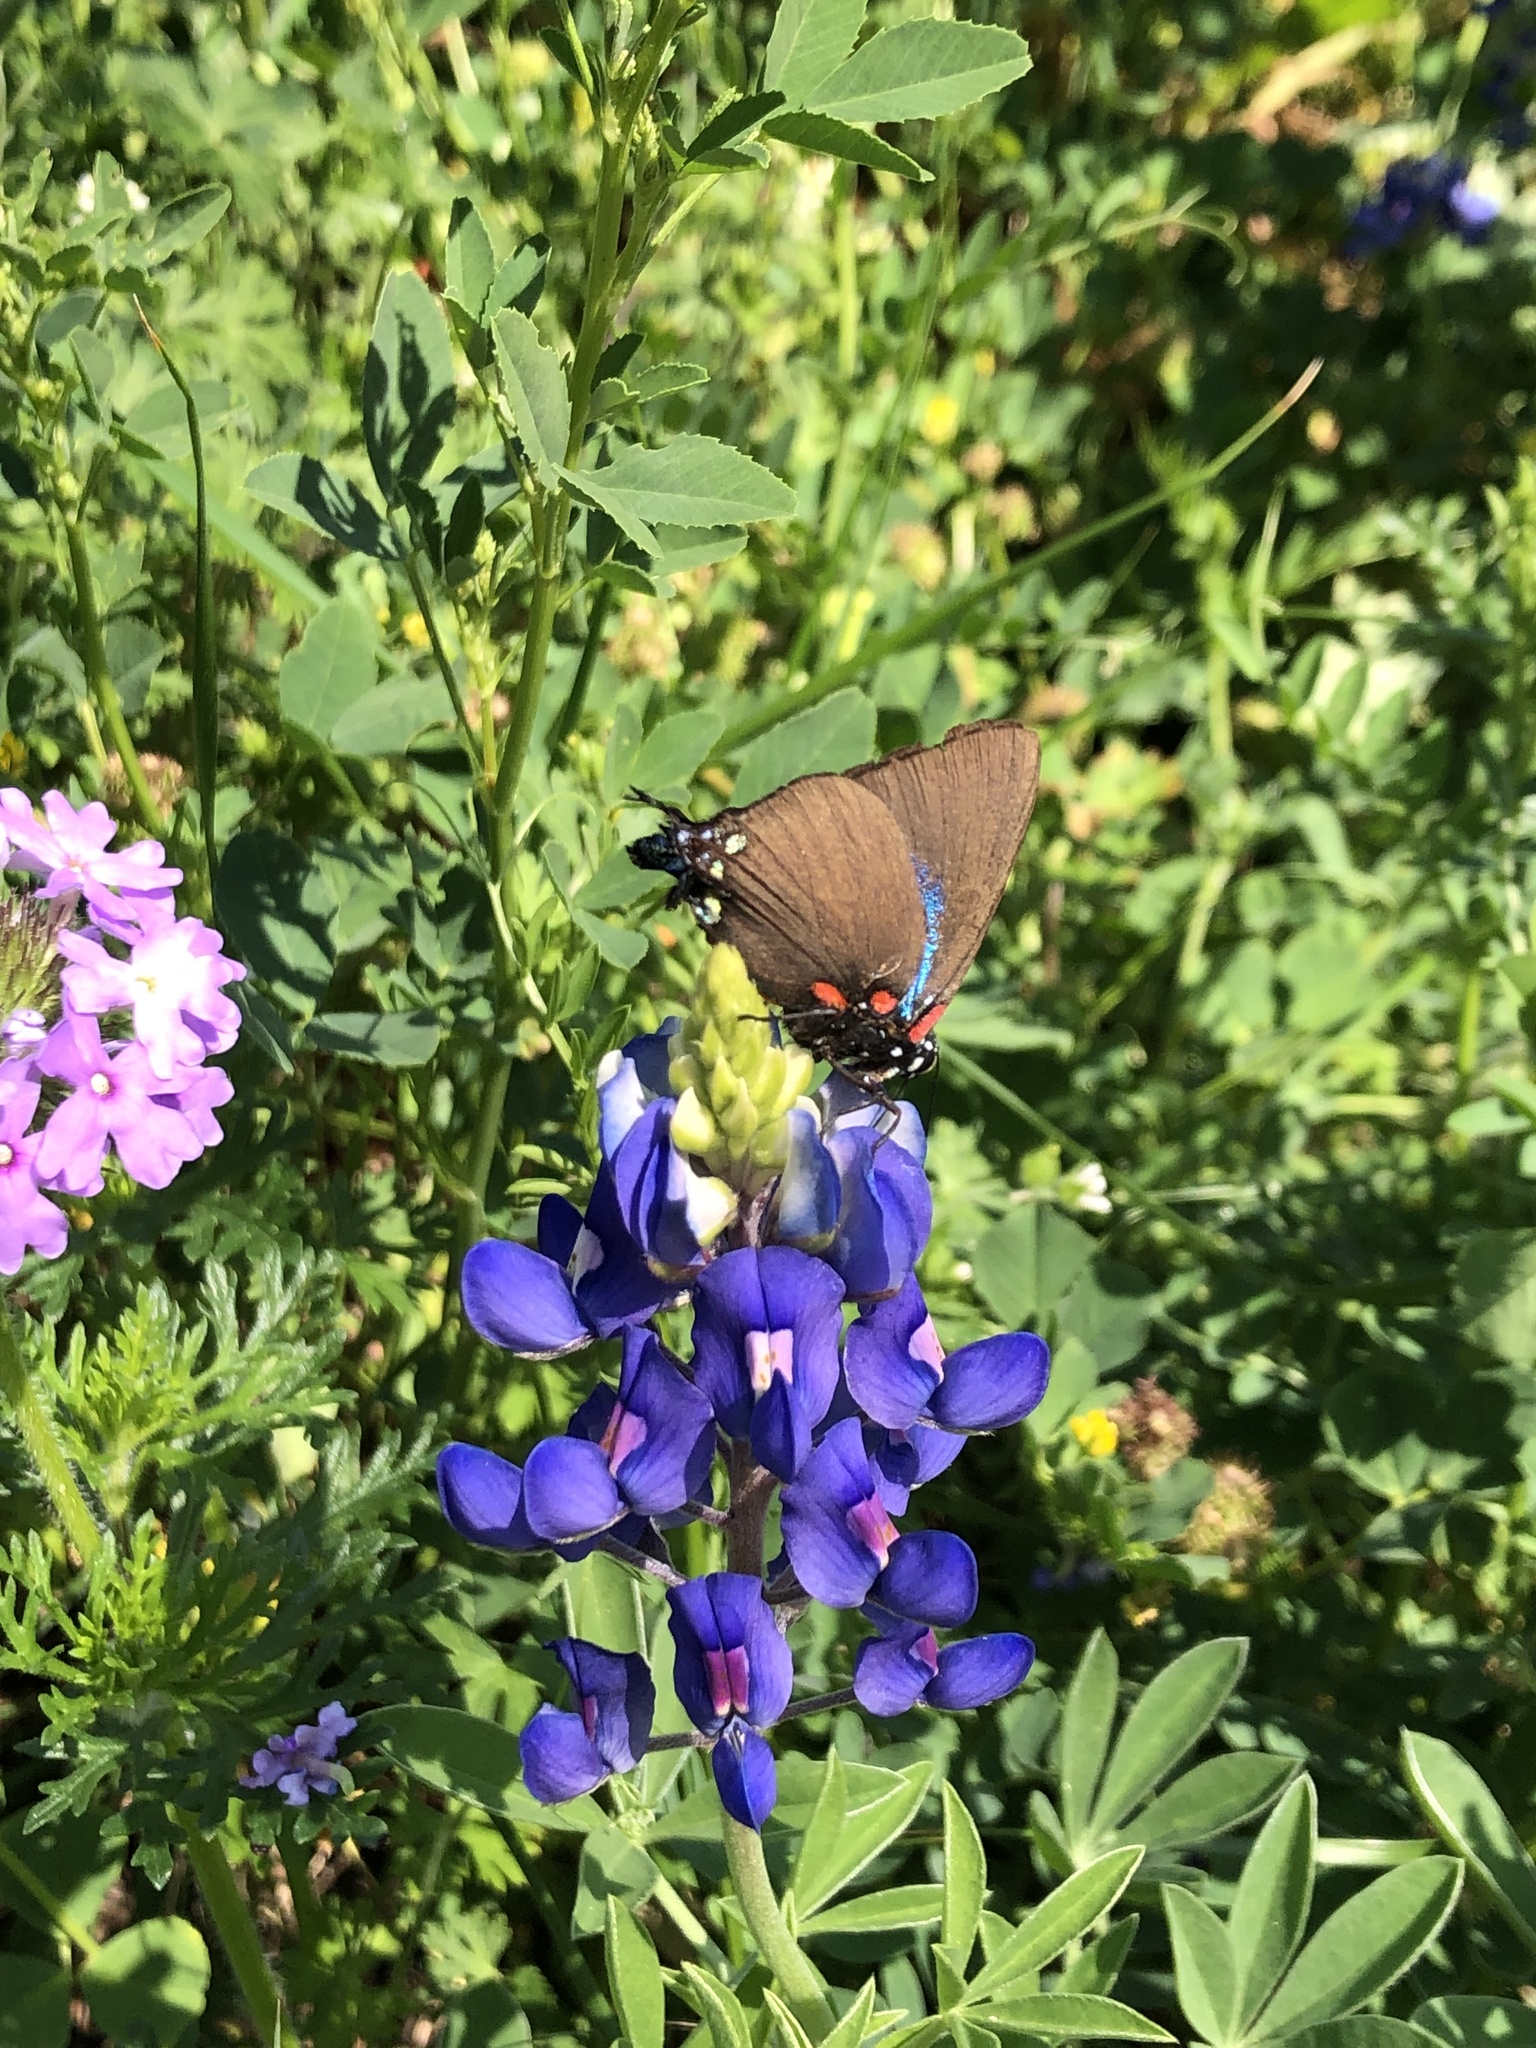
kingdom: Animalia
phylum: Arthropoda
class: Insecta
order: Lepidoptera
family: Lycaenidae
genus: Atlides
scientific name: Atlides halesus
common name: Great purple hairstreak
